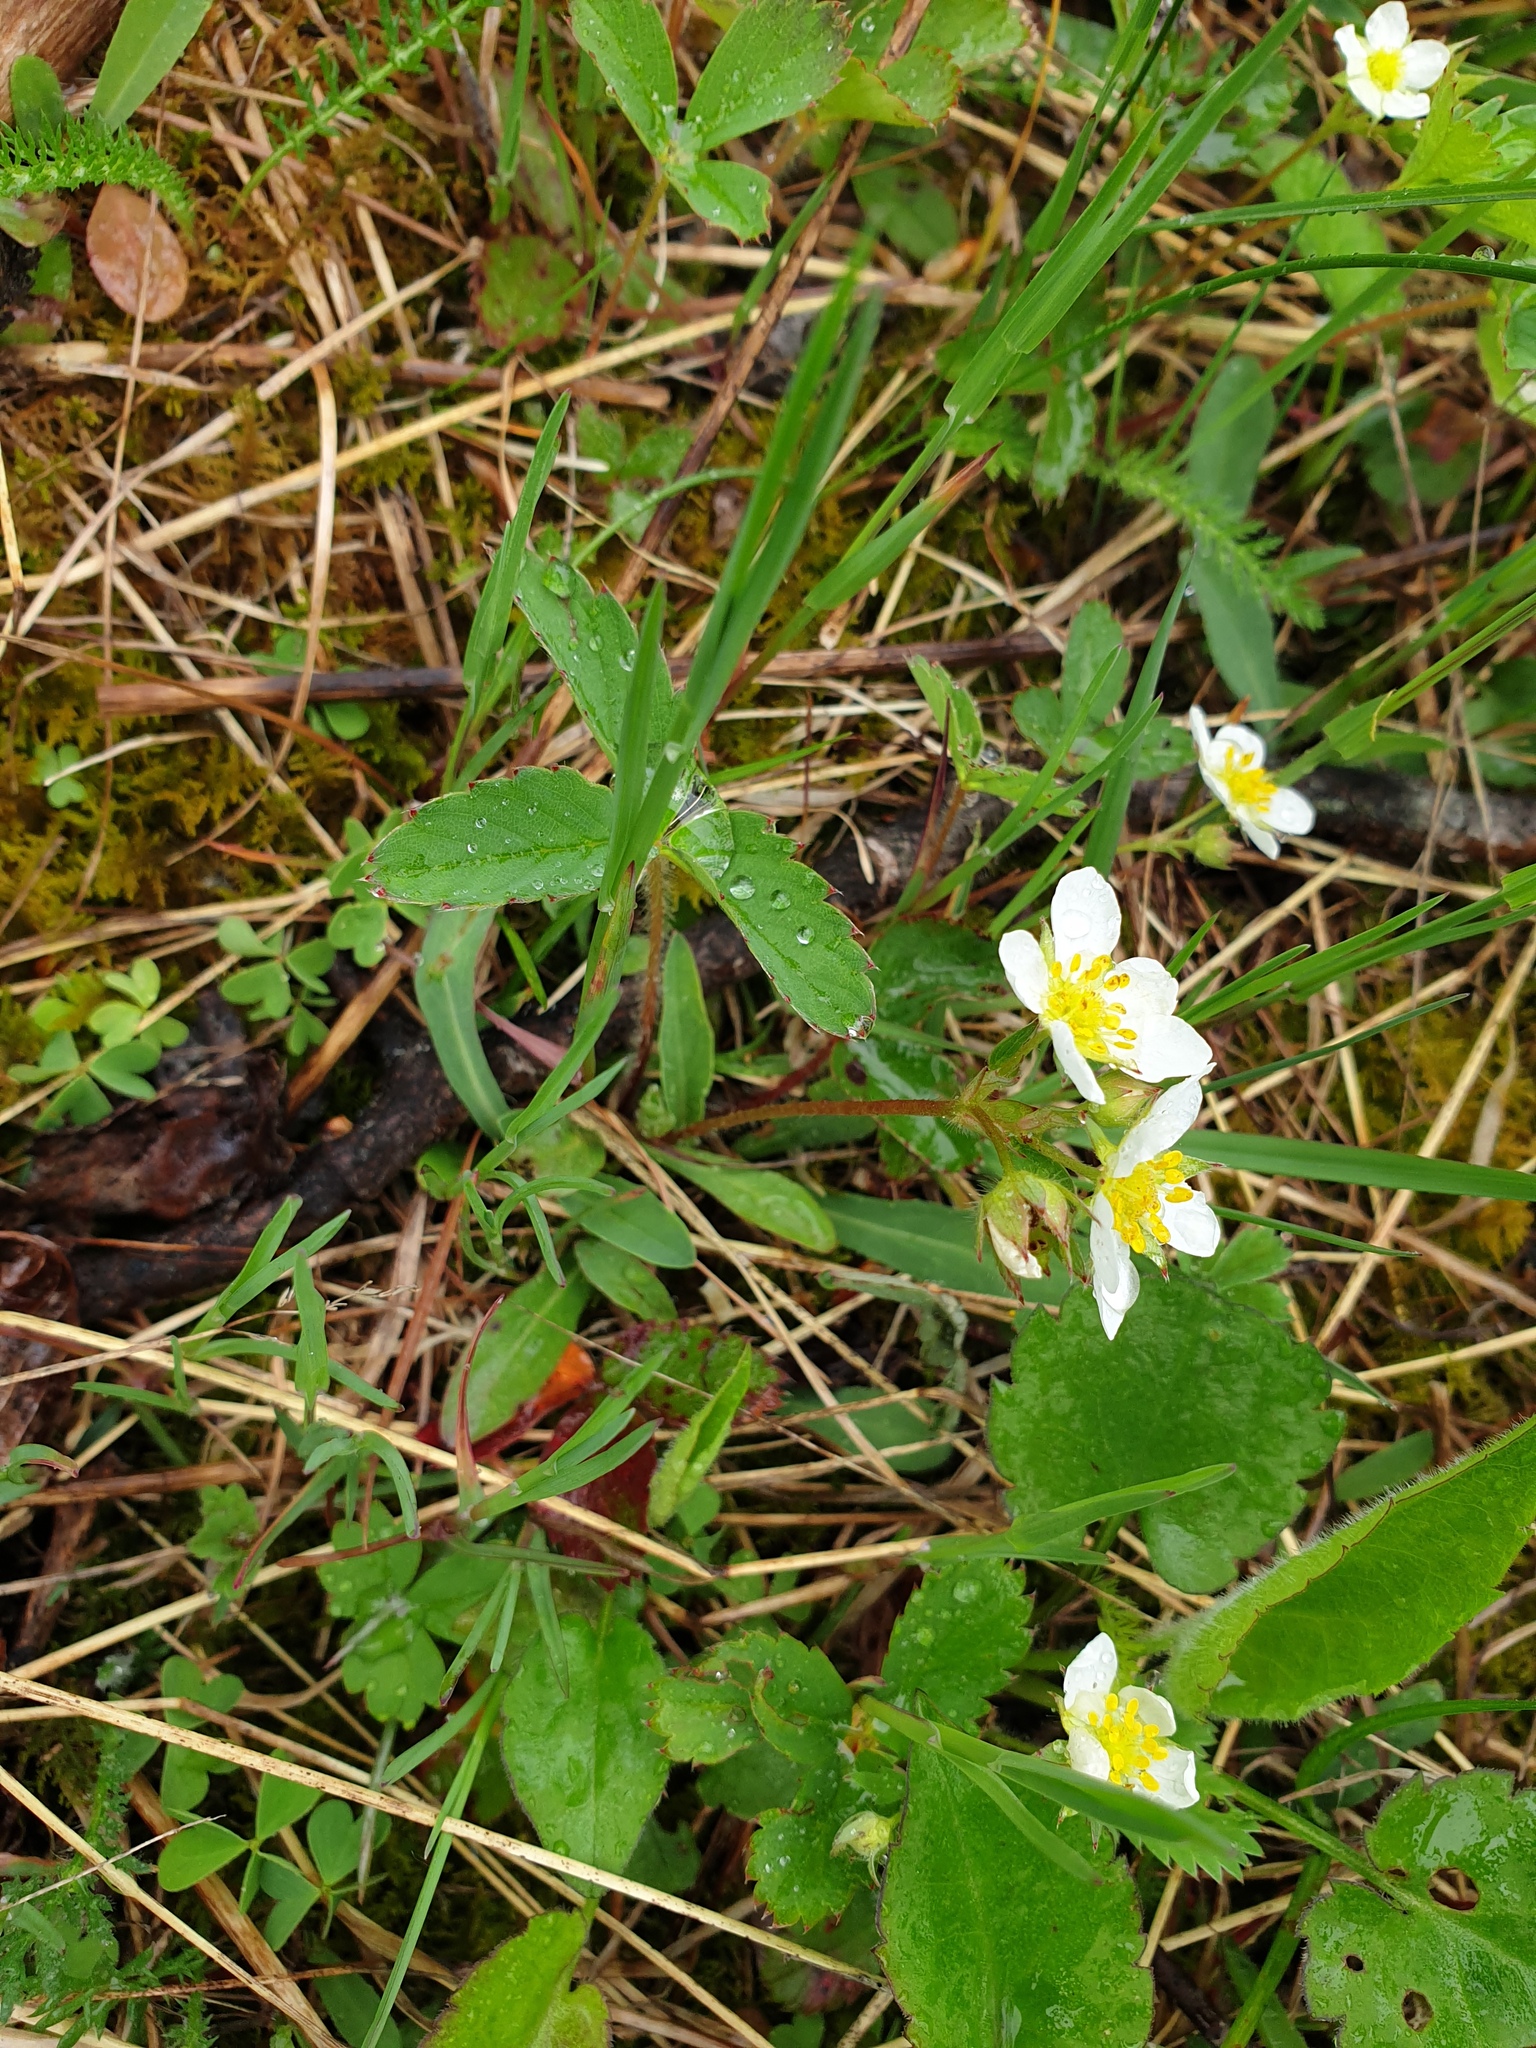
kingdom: Plantae
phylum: Tracheophyta
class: Magnoliopsida
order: Rosales
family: Rosaceae
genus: Fragaria
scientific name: Fragaria virginiana
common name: Thickleaved wild strawberry
